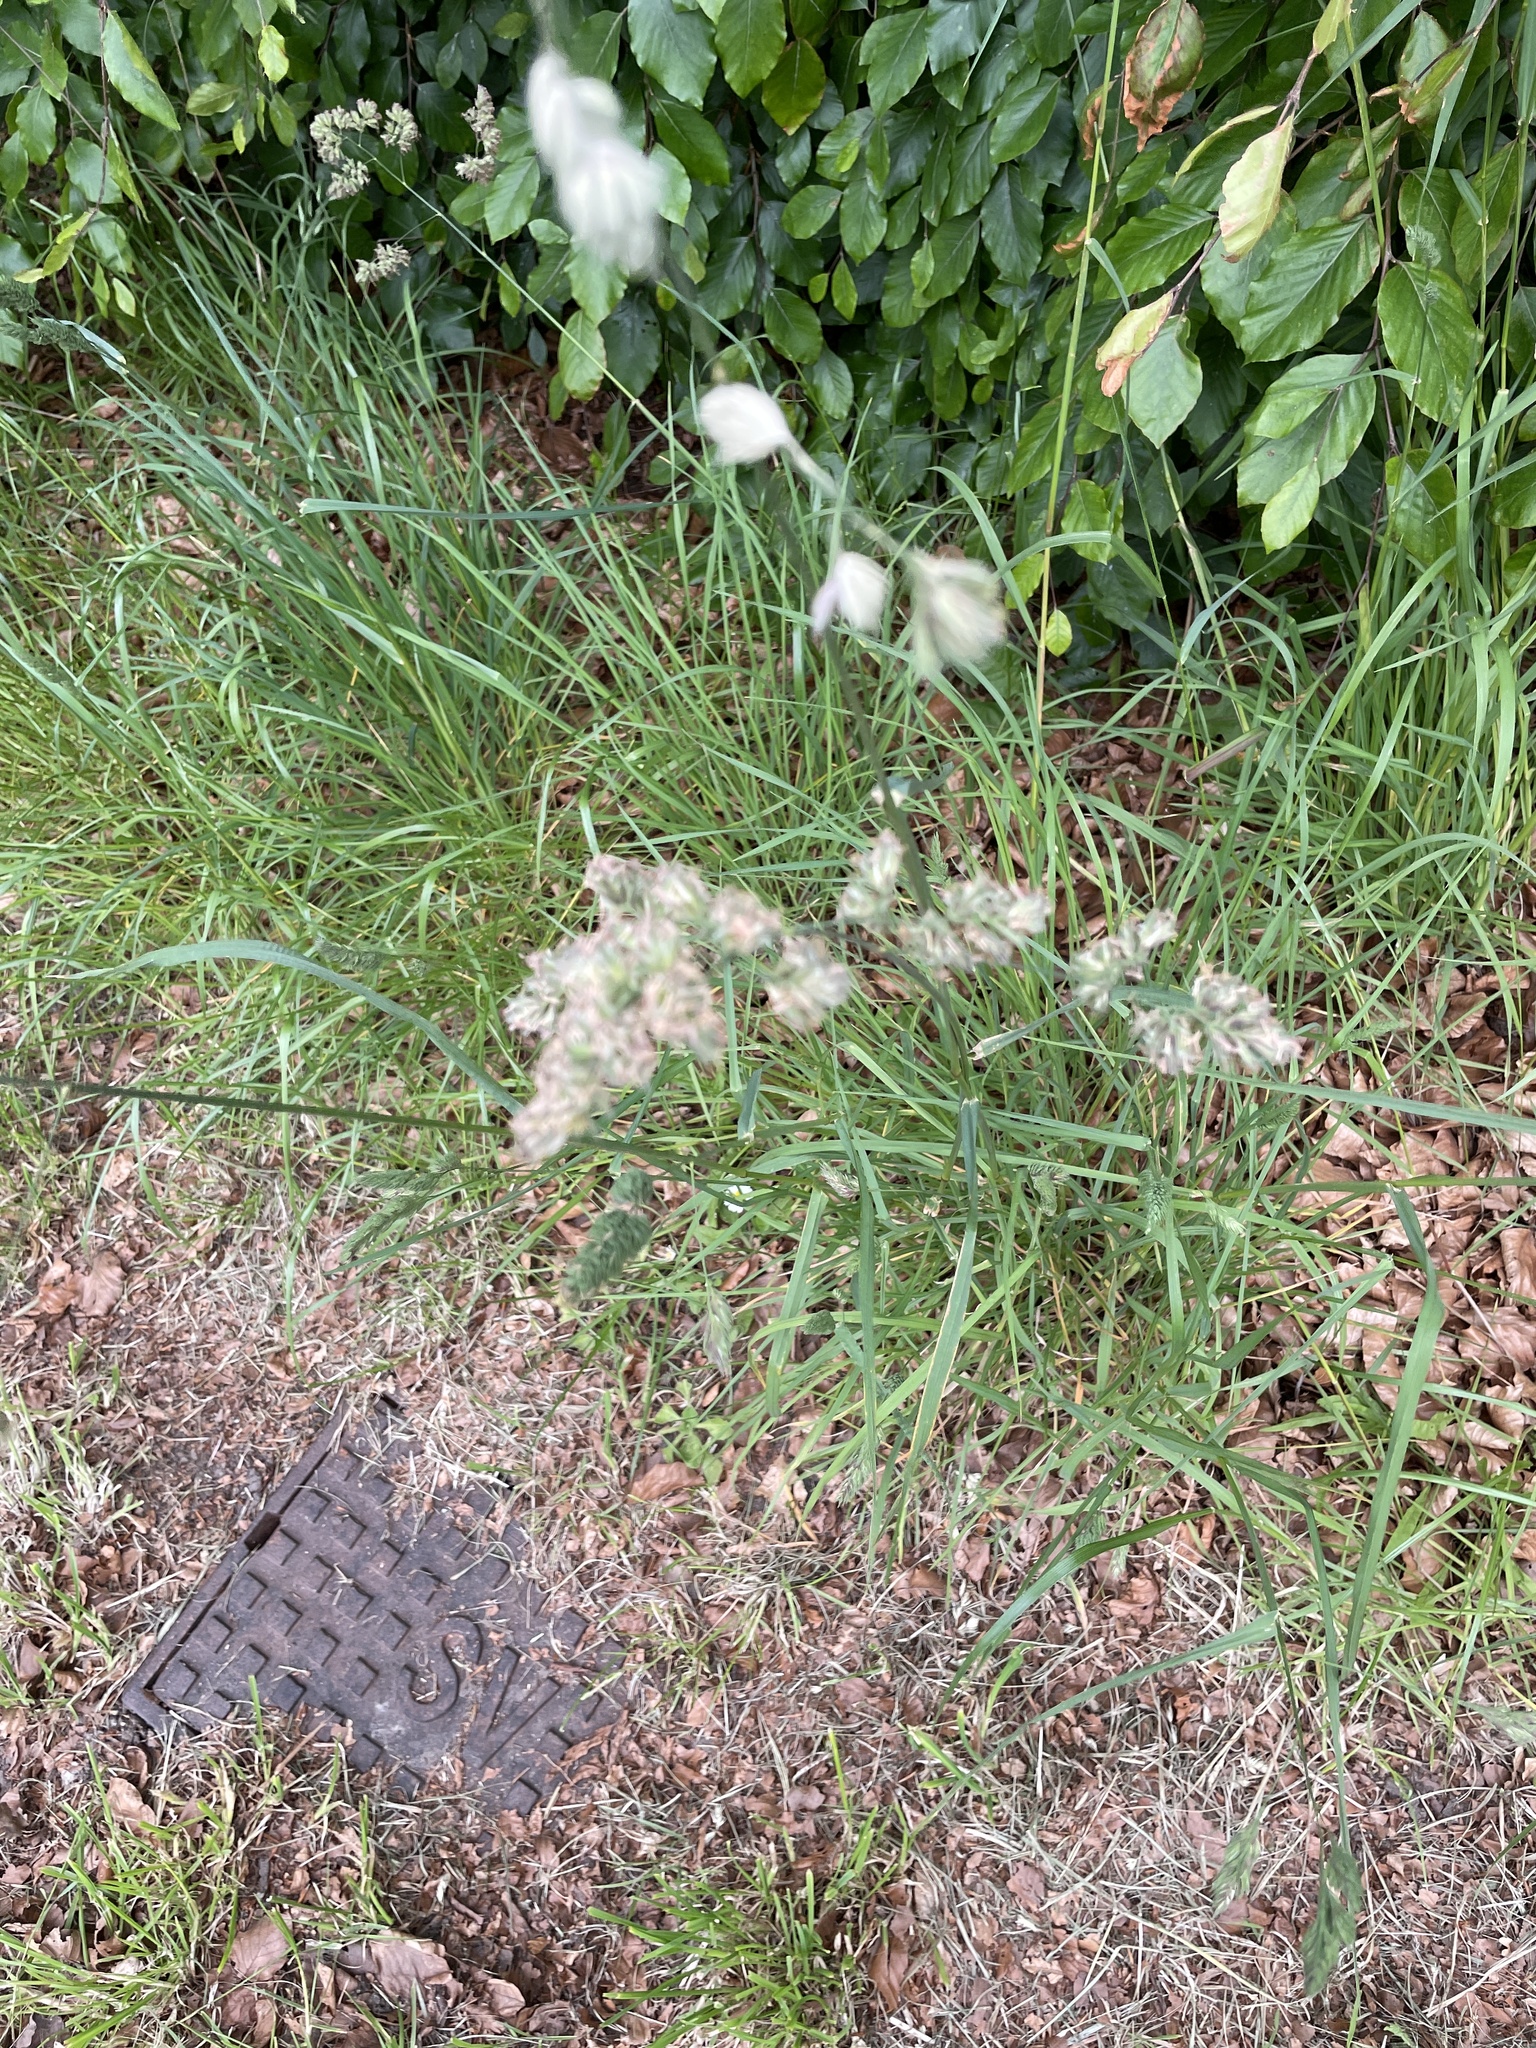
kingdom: Plantae
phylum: Tracheophyta
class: Liliopsida
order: Poales
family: Poaceae
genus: Dactylis
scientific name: Dactylis glomerata
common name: Orchardgrass
